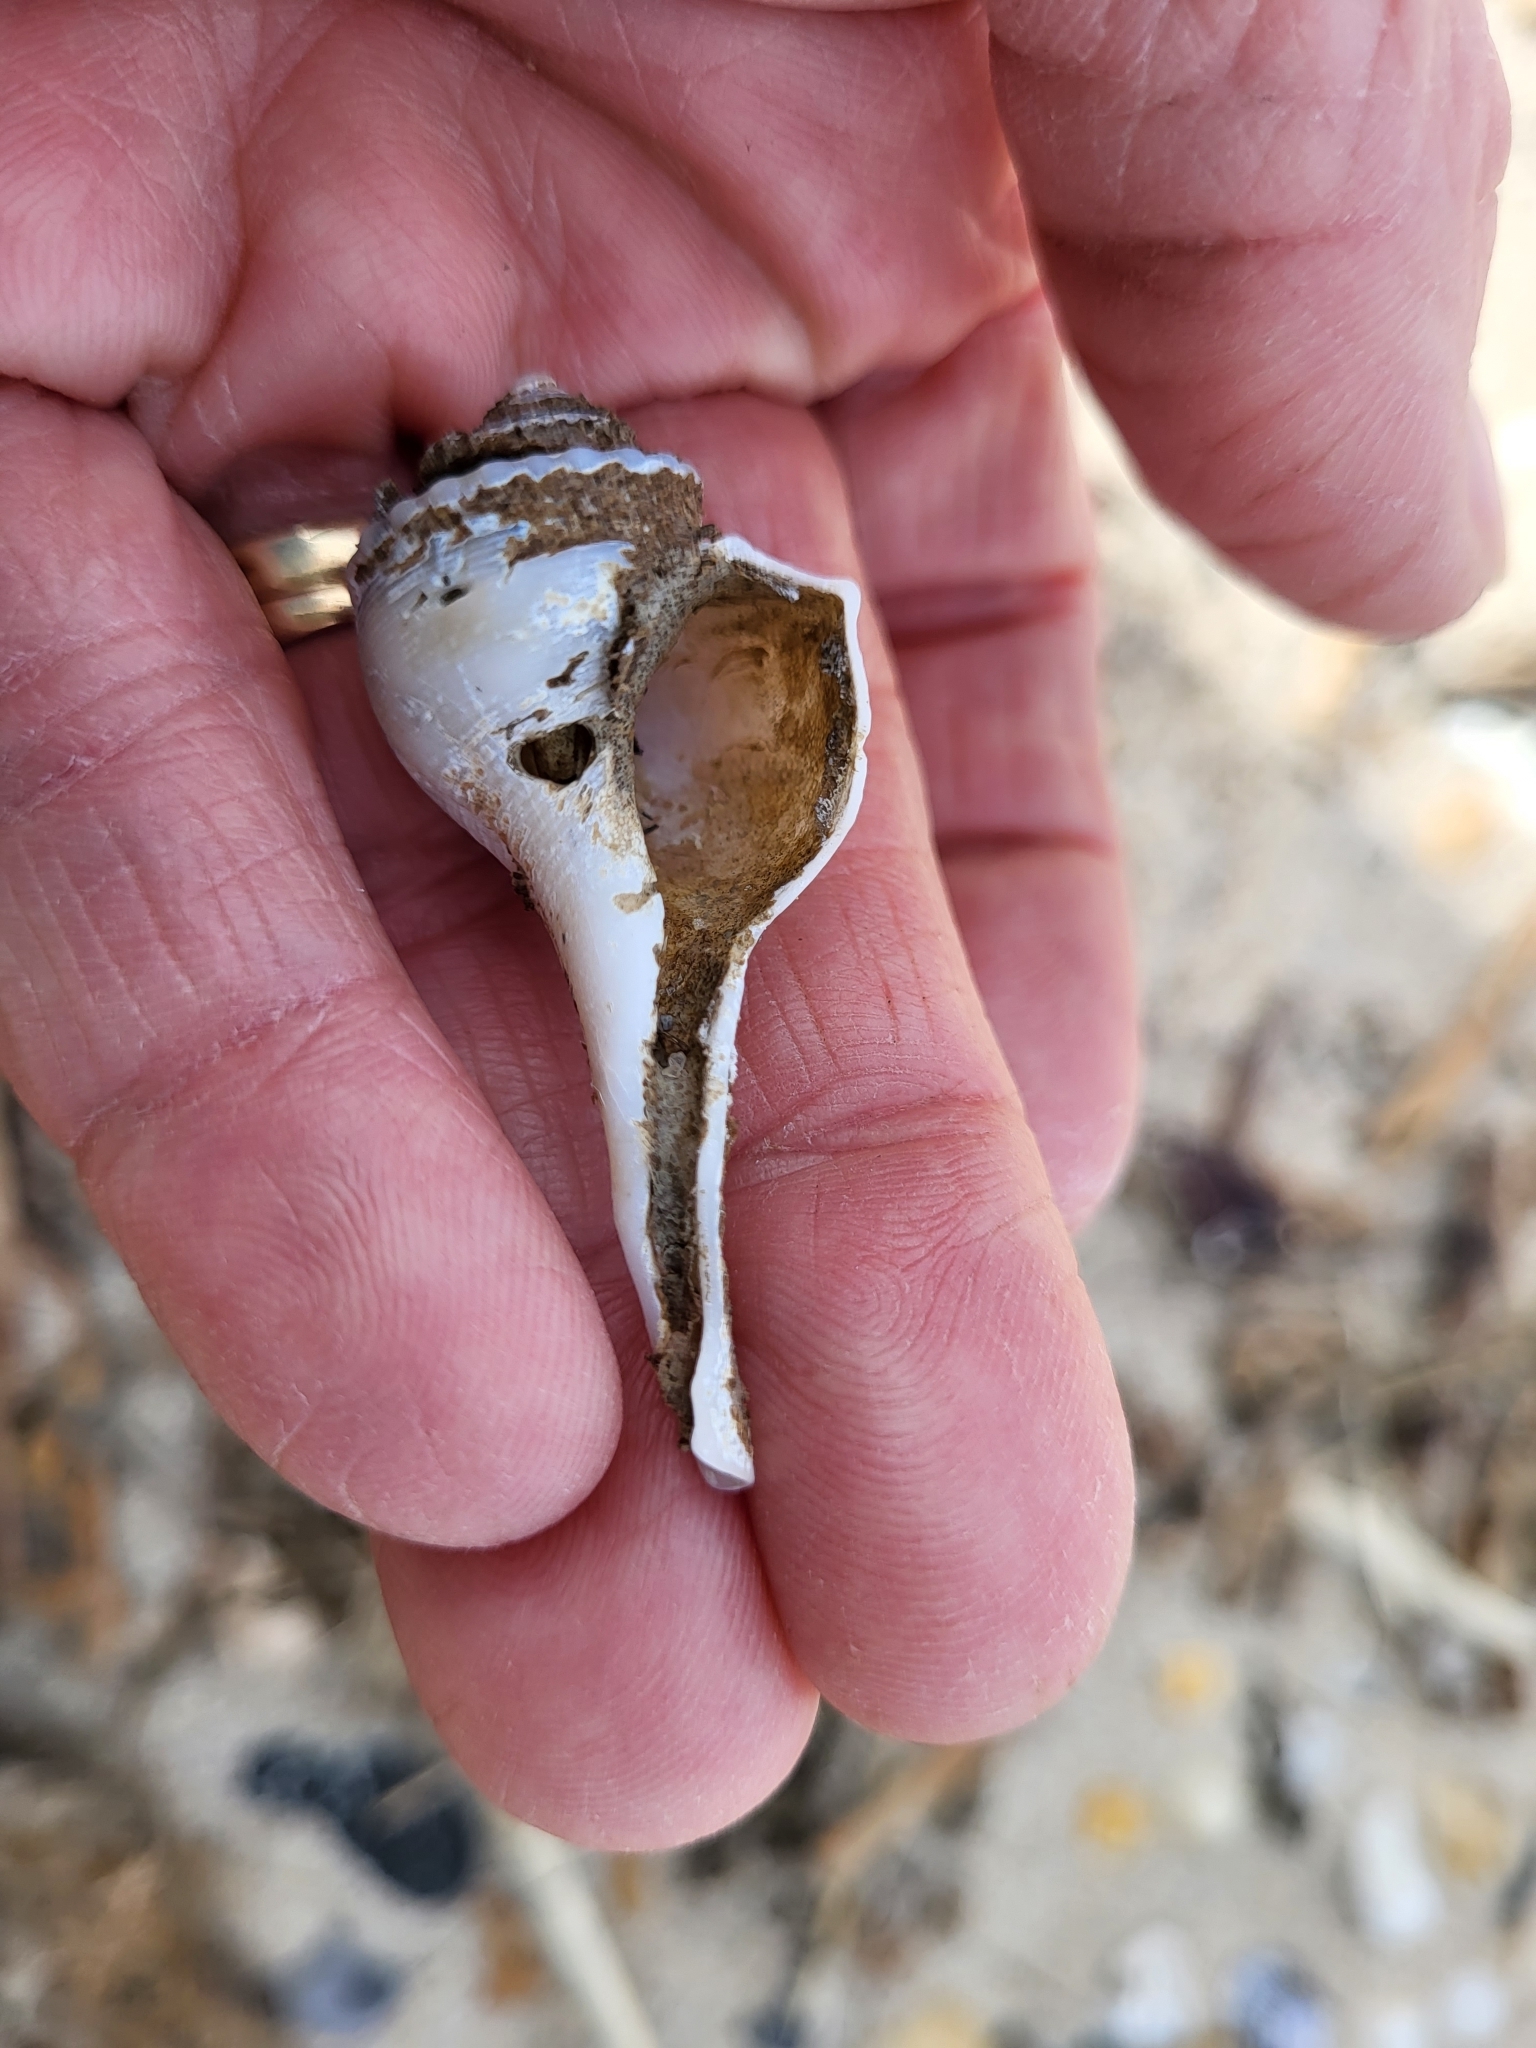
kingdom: Animalia
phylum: Mollusca
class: Gastropoda
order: Neogastropoda
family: Busyconidae
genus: Busycotypus
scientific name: Busycotypus canaliculatus
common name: Channeled whelk
